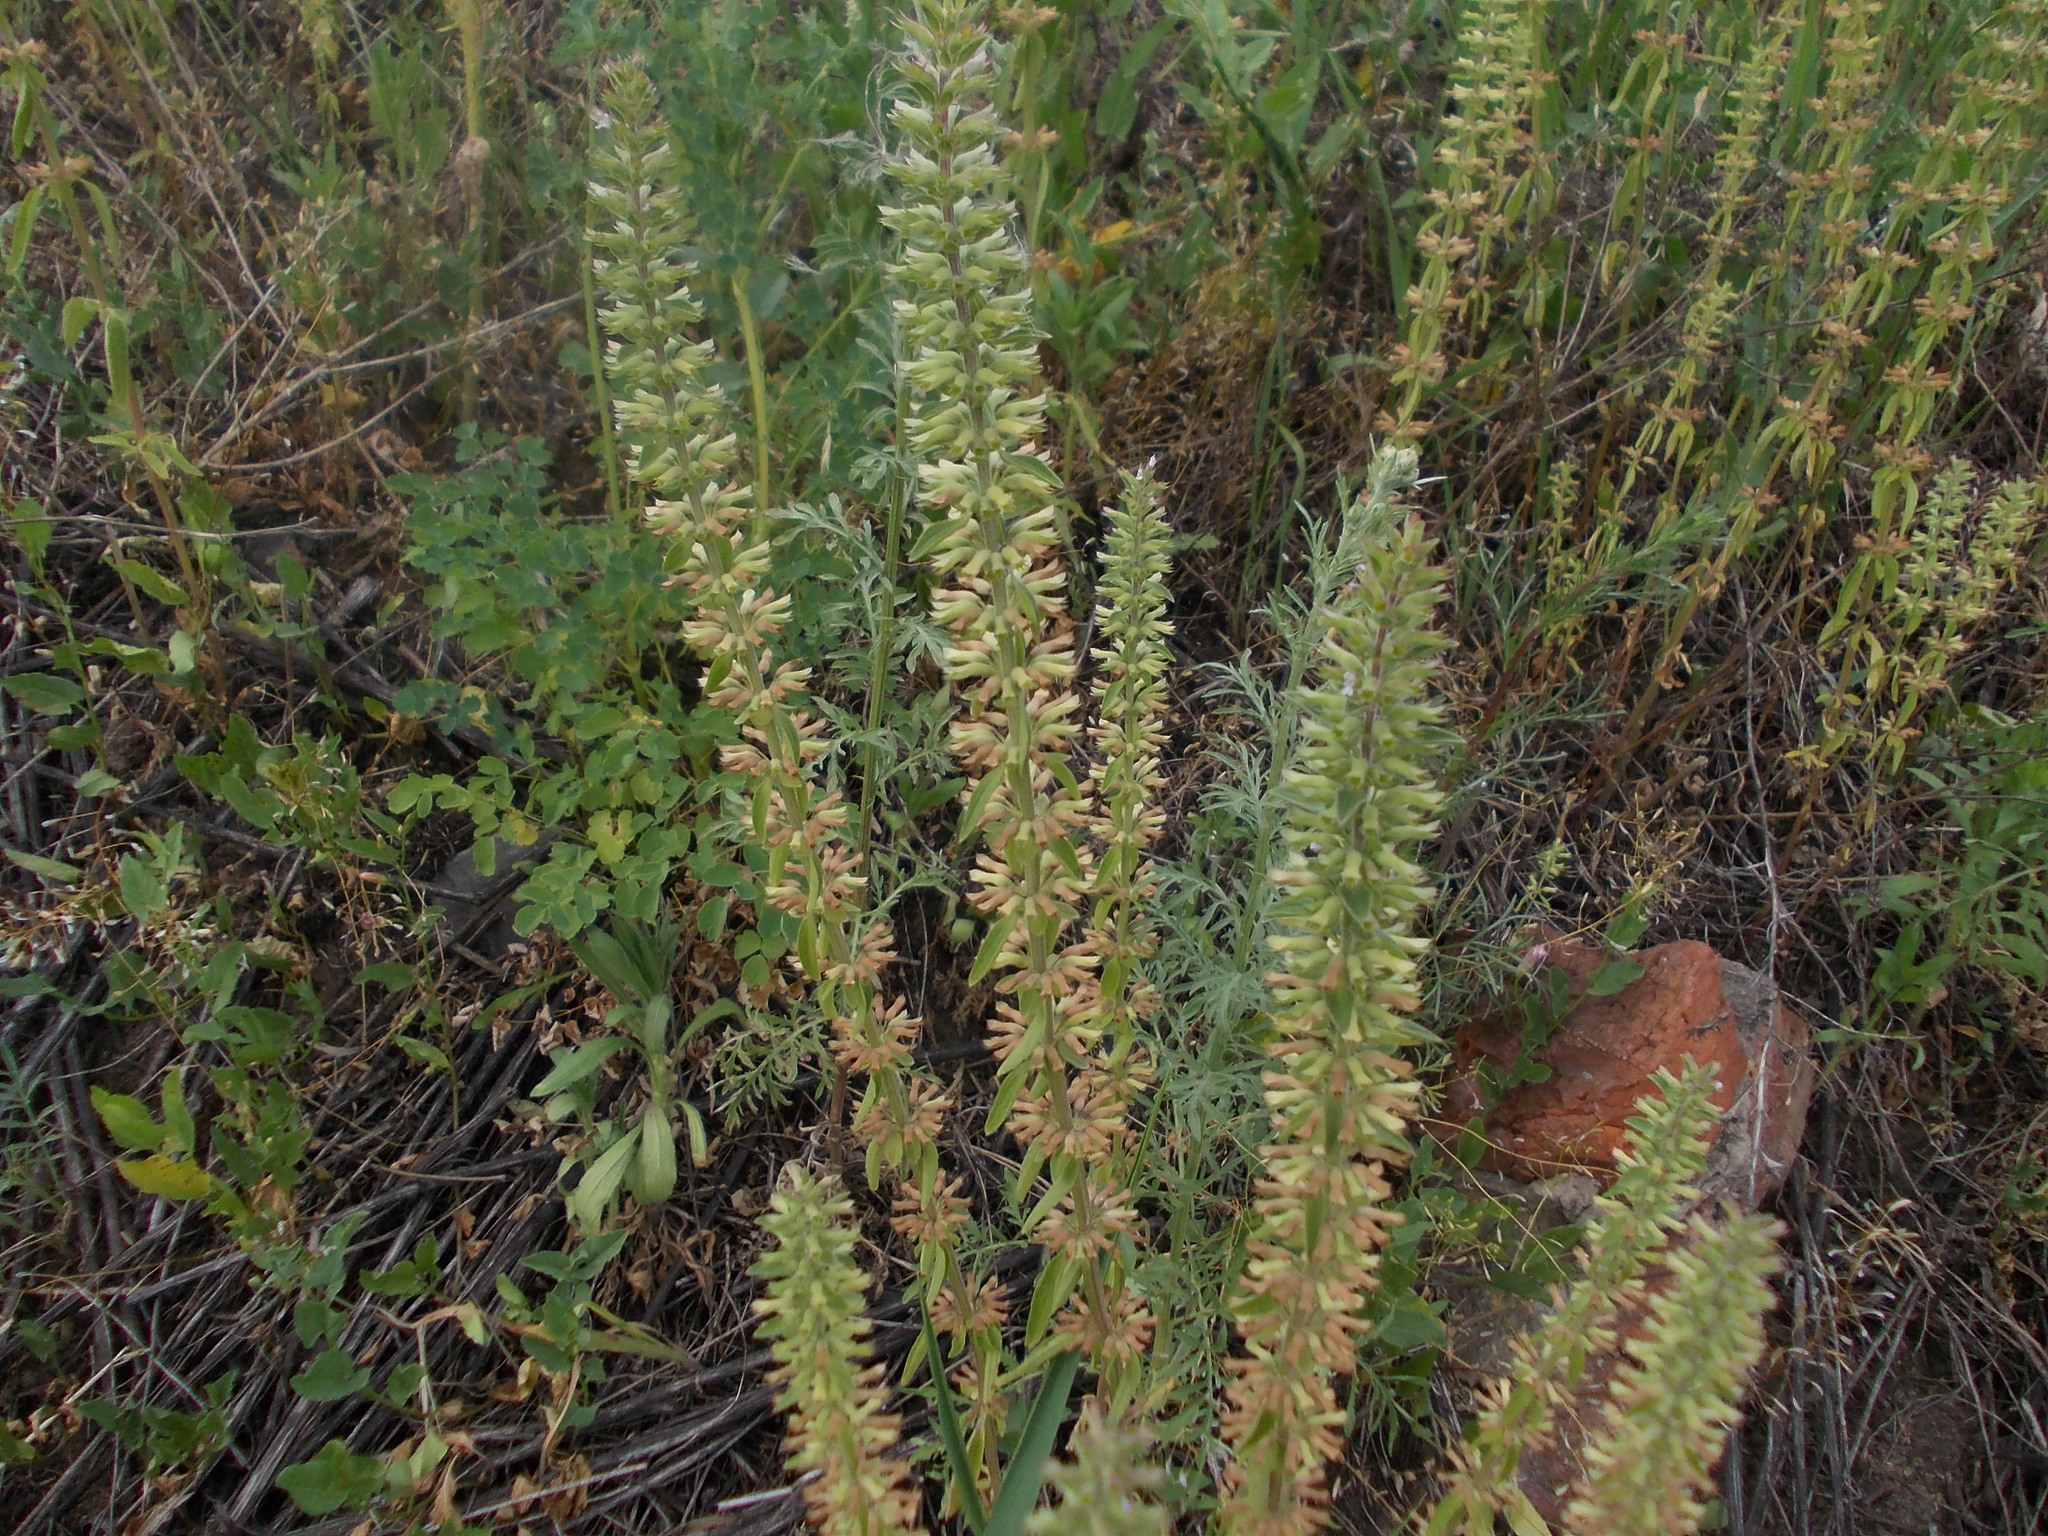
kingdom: Plantae
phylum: Tracheophyta
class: Magnoliopsida
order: Lamiales
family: Lamiaceae
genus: Dracocephalum
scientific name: Dracocephalum thymiflorum
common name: Thymeleaf dragonhead
